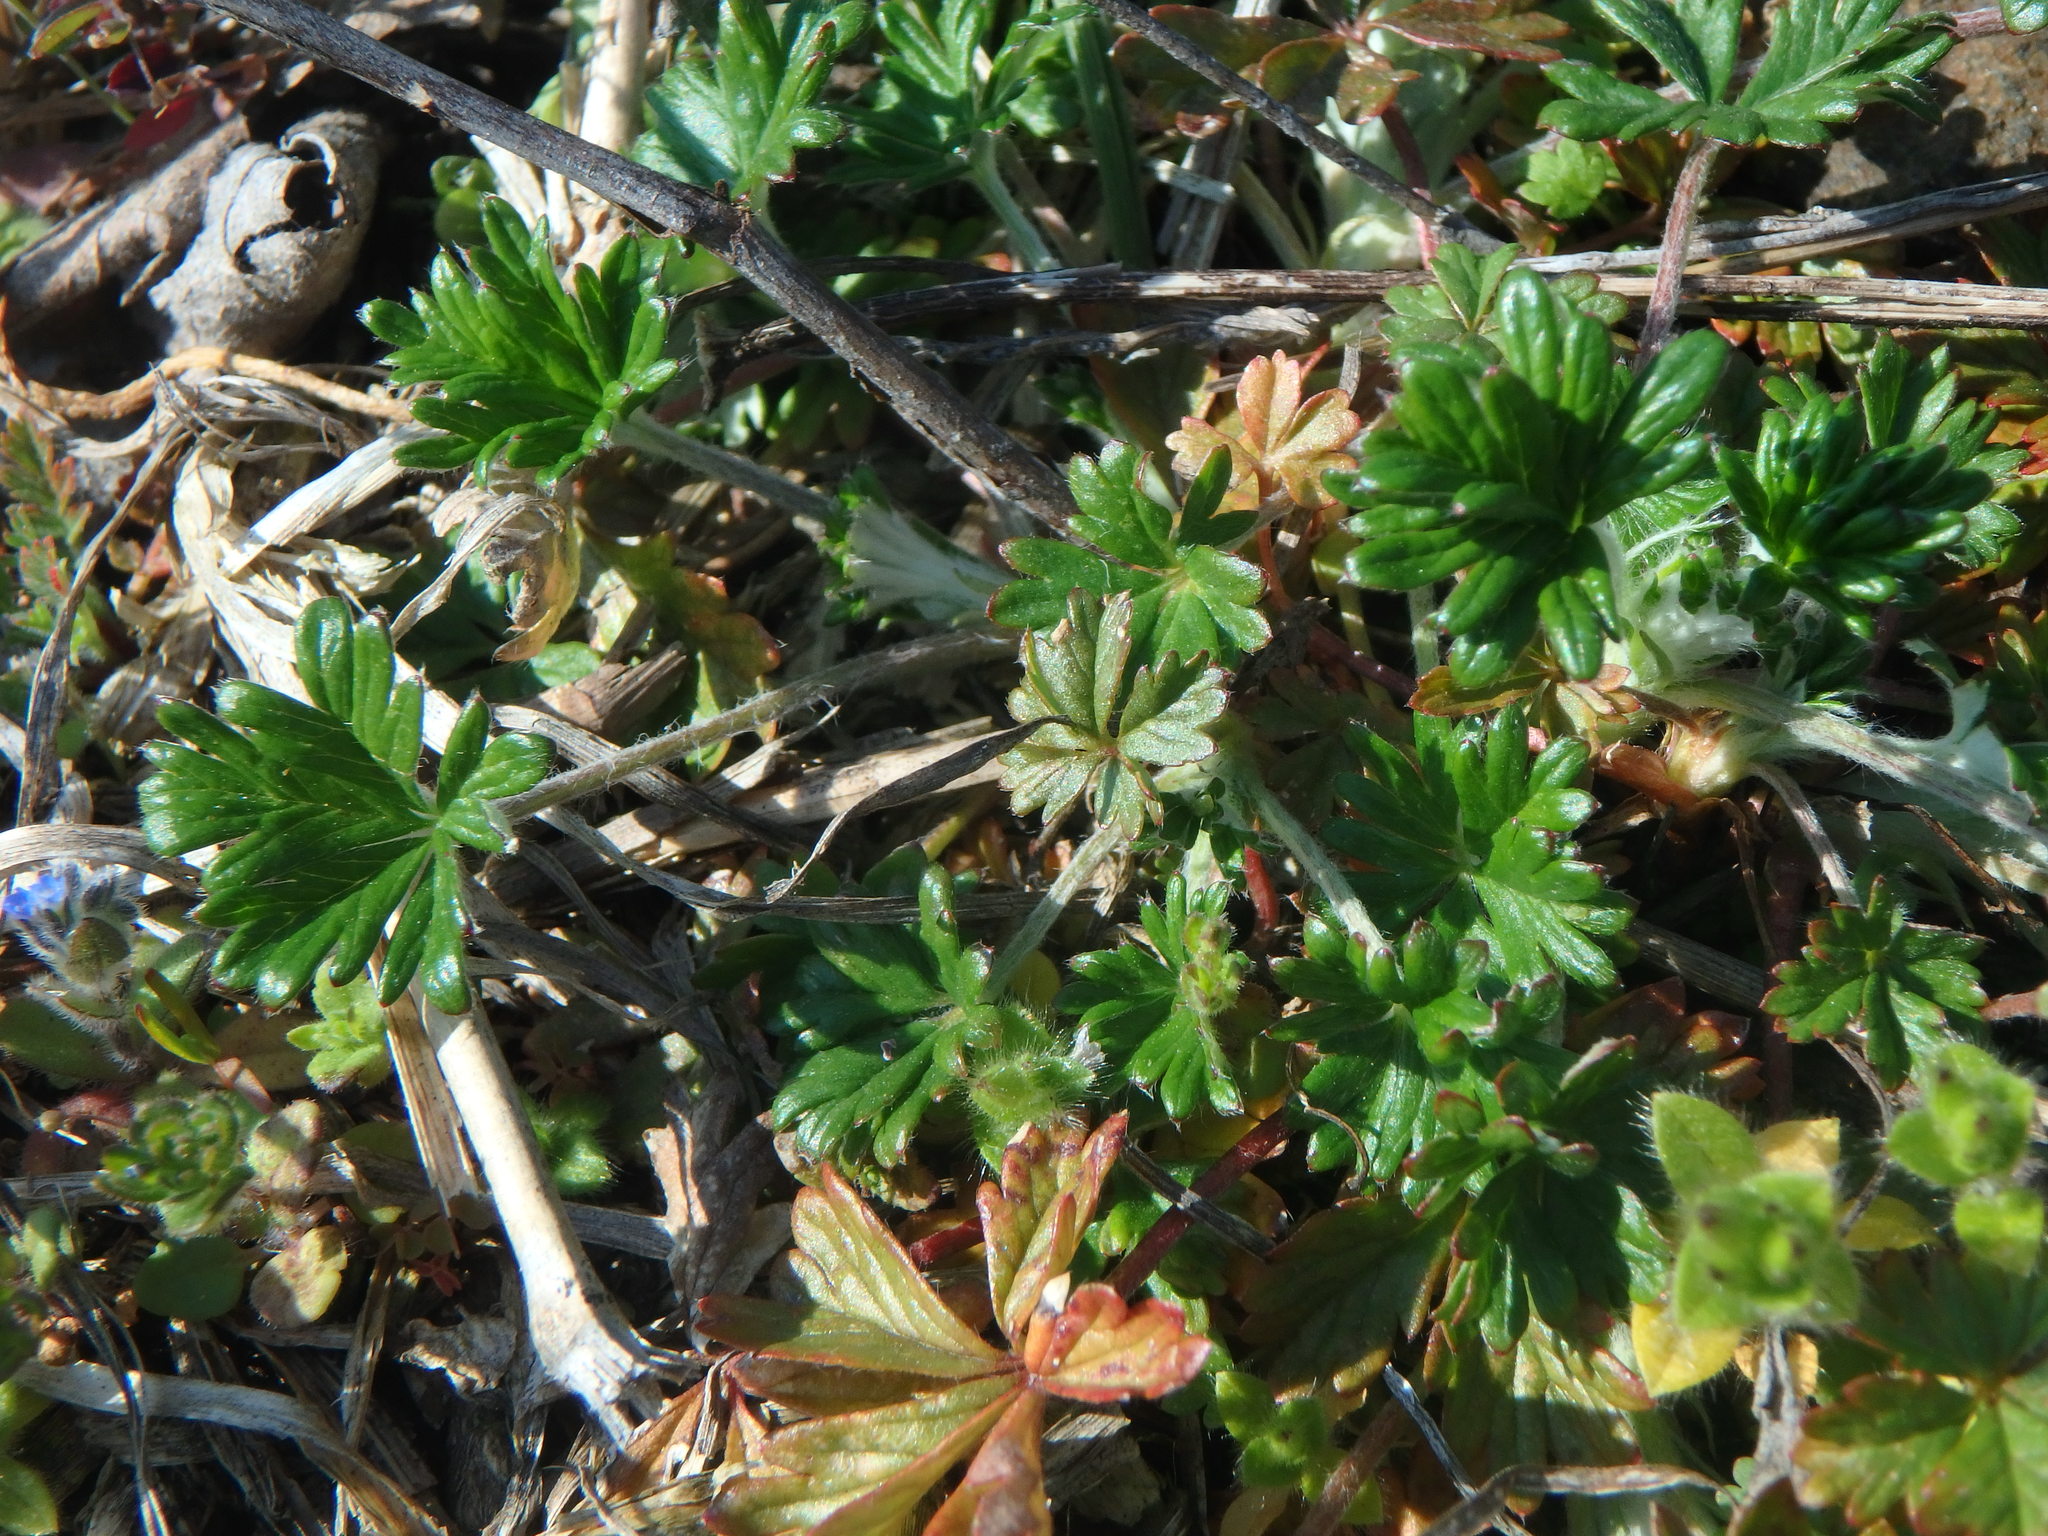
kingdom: Plantae
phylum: Tracheophyta
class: Magnoliopsida
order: Rosales
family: Rosaceae
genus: Potentilla
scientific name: Potentilla argentea
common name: Hoary cinquefoil
